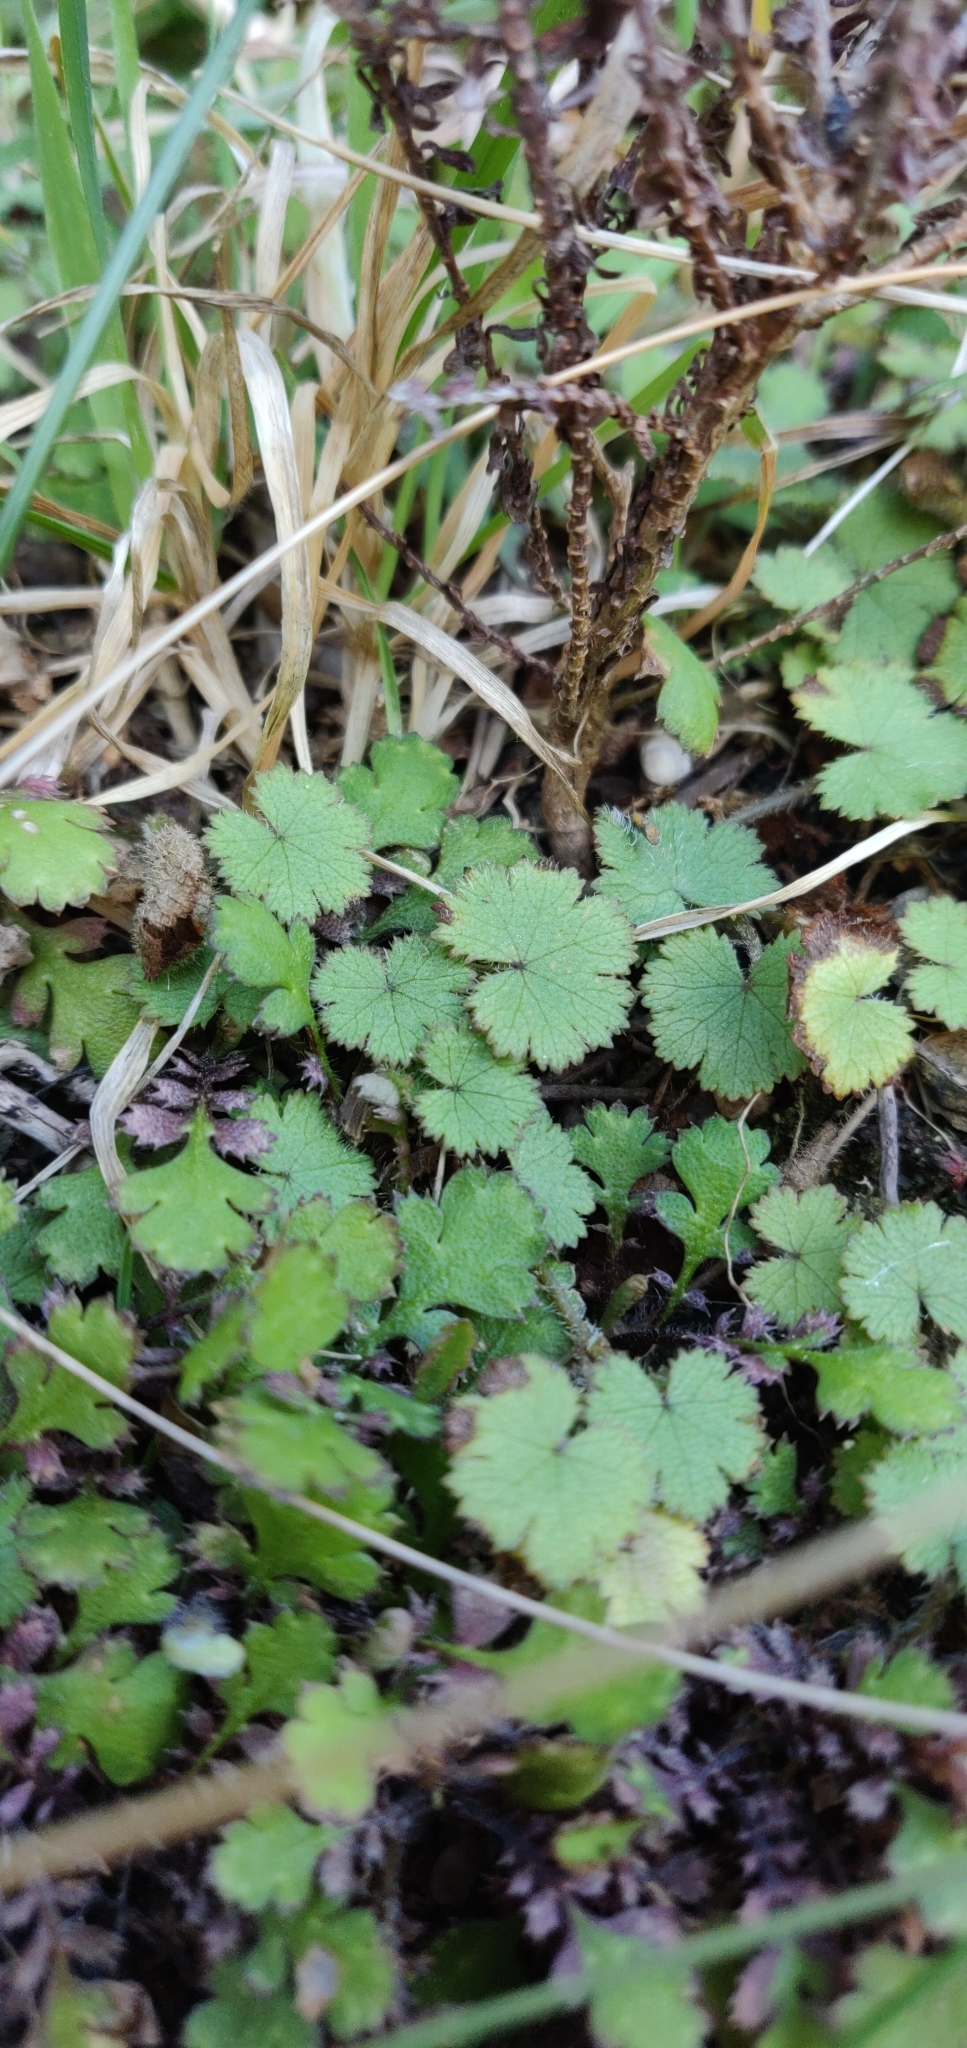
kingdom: Plantae
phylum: Tracheophyta
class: Magnoliopsida
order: Apiales
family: Araliaceae
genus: Hydrocotyle
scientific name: Hydrocotyle moschata
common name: Hairy pennywort
